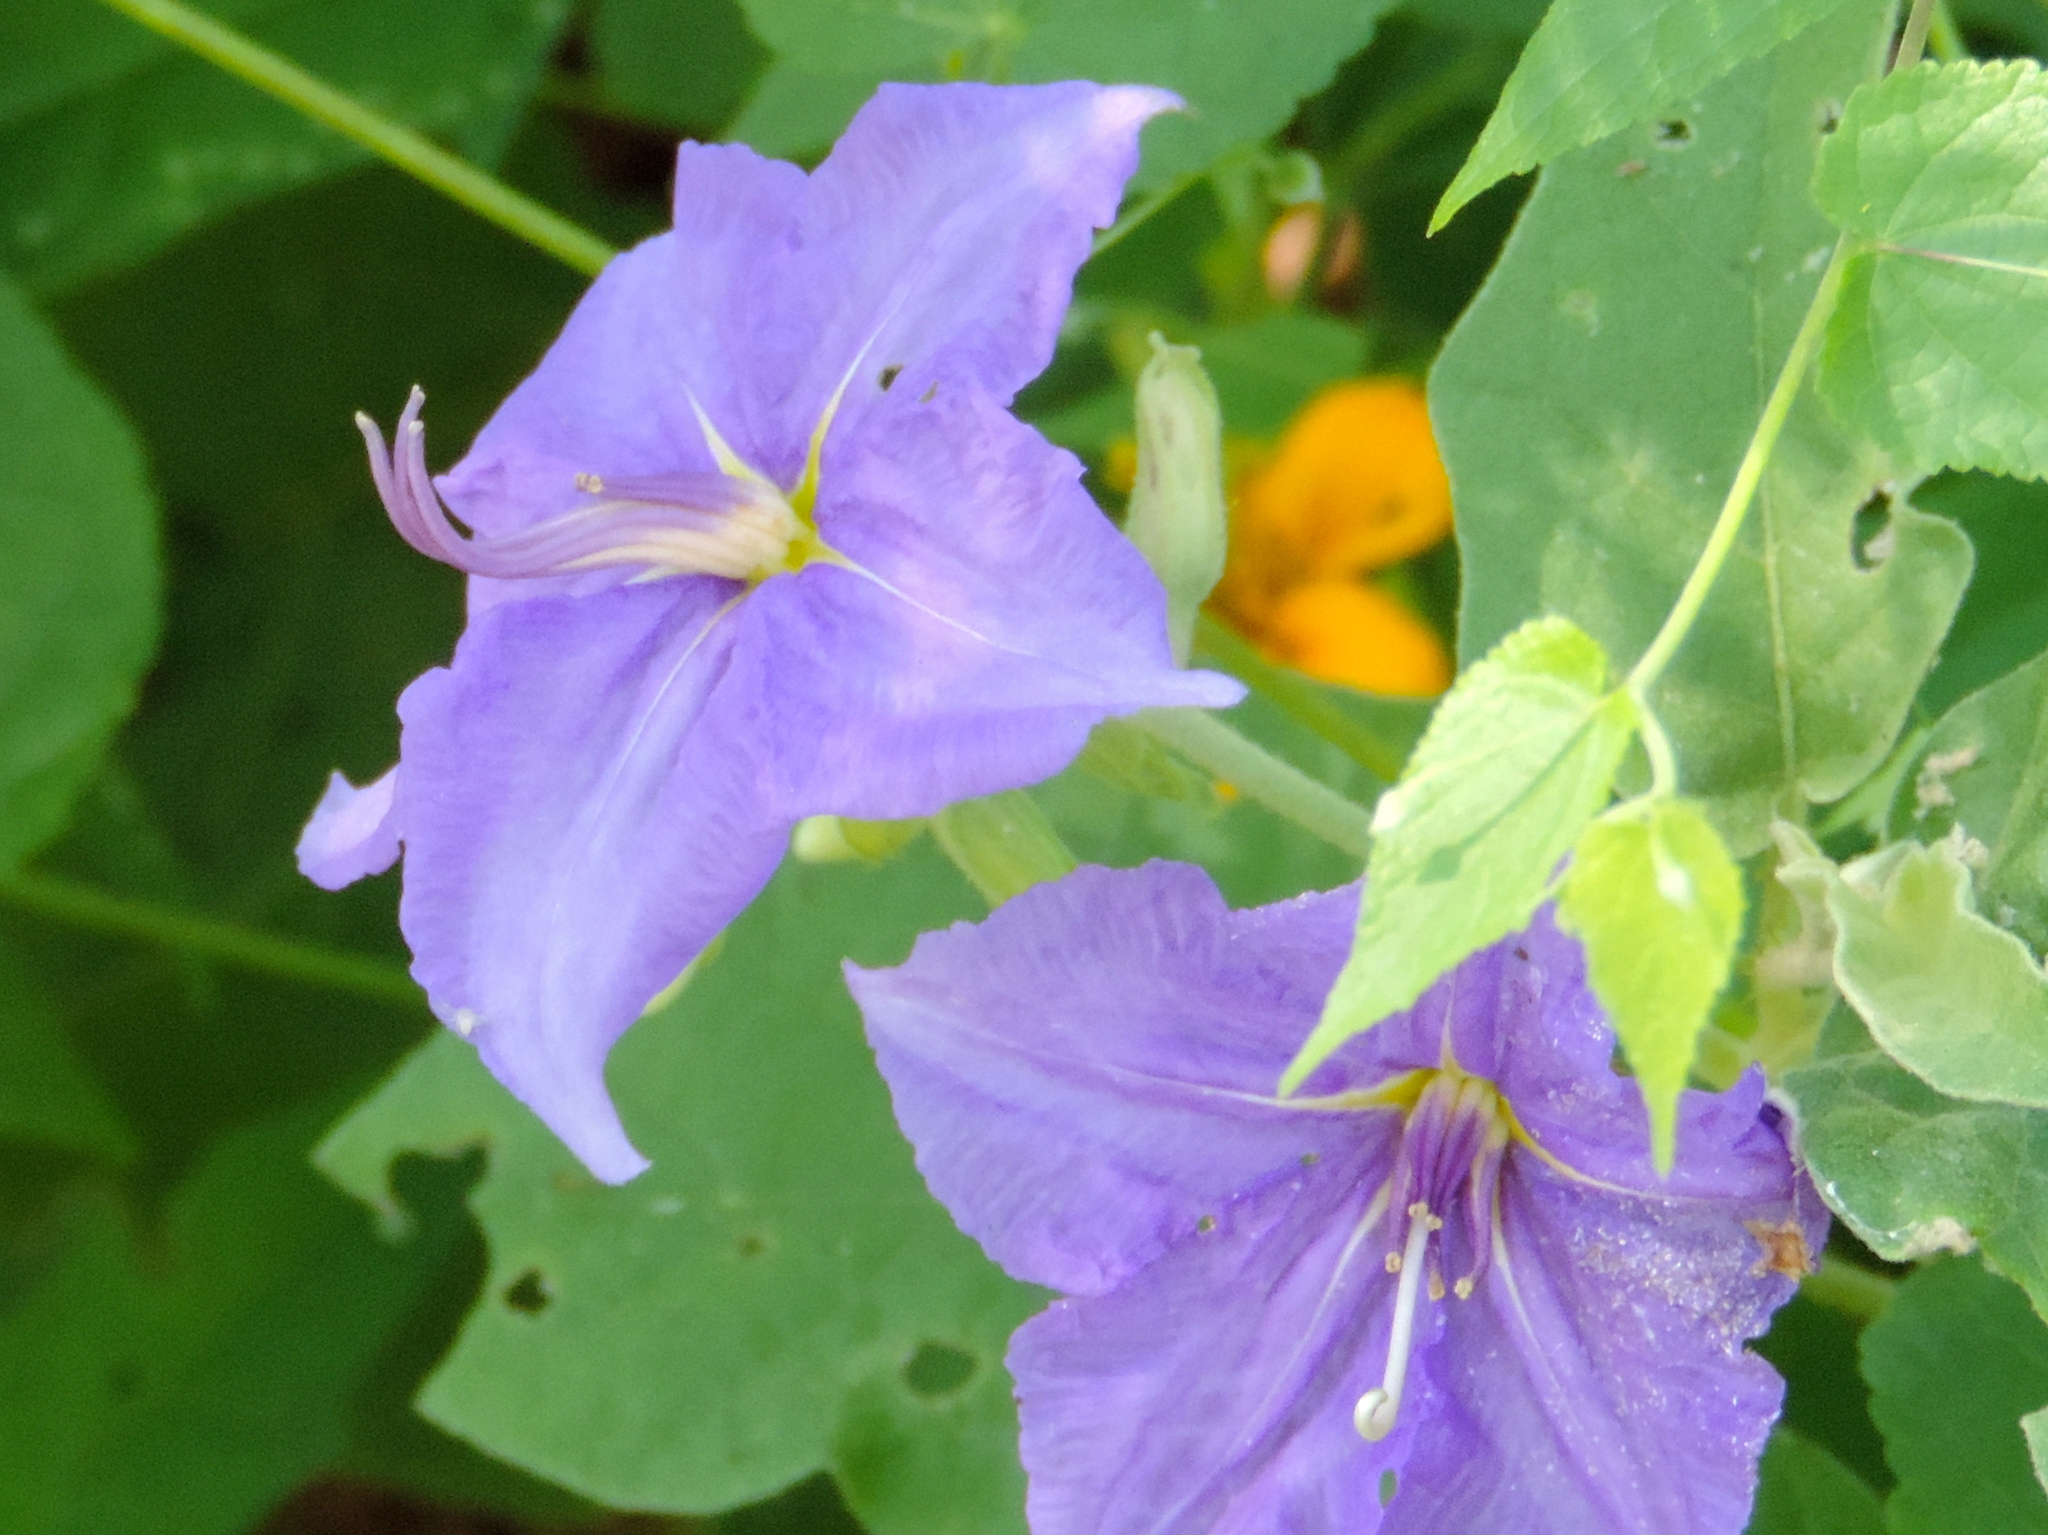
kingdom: Plantae
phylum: Tracheophyta
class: Magnoliopsida
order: Solanales
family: Solanaceae
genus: Solanum
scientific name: Solanum houstonii
